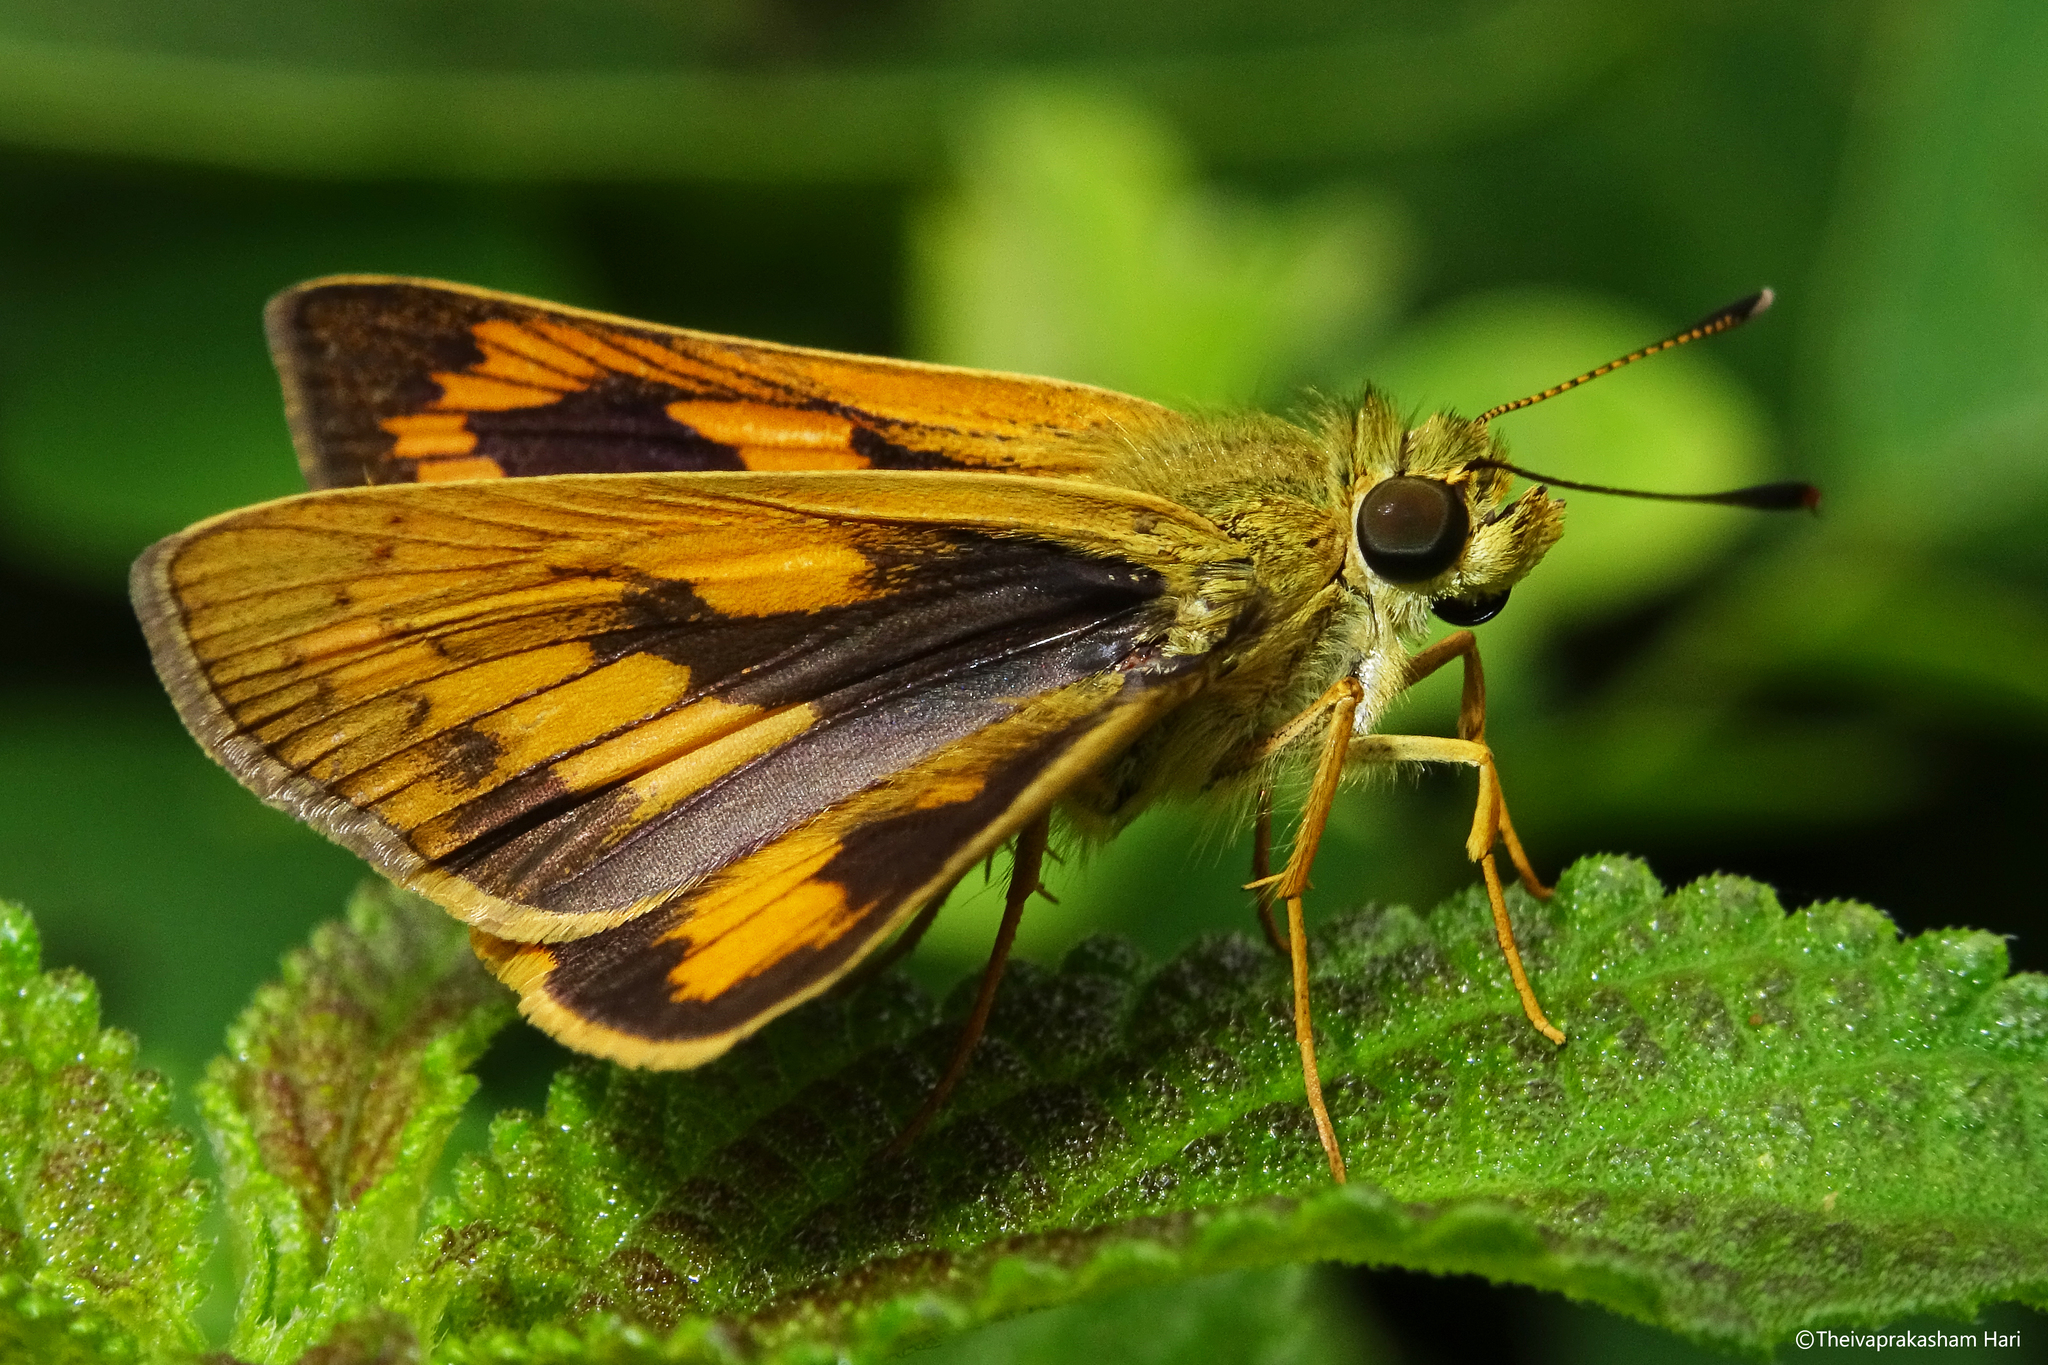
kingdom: Animalia
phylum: Arthropoda
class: Insecta
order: Lepidoptera
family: Hesperiidae
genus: Telicota
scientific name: Telicota bambusae
